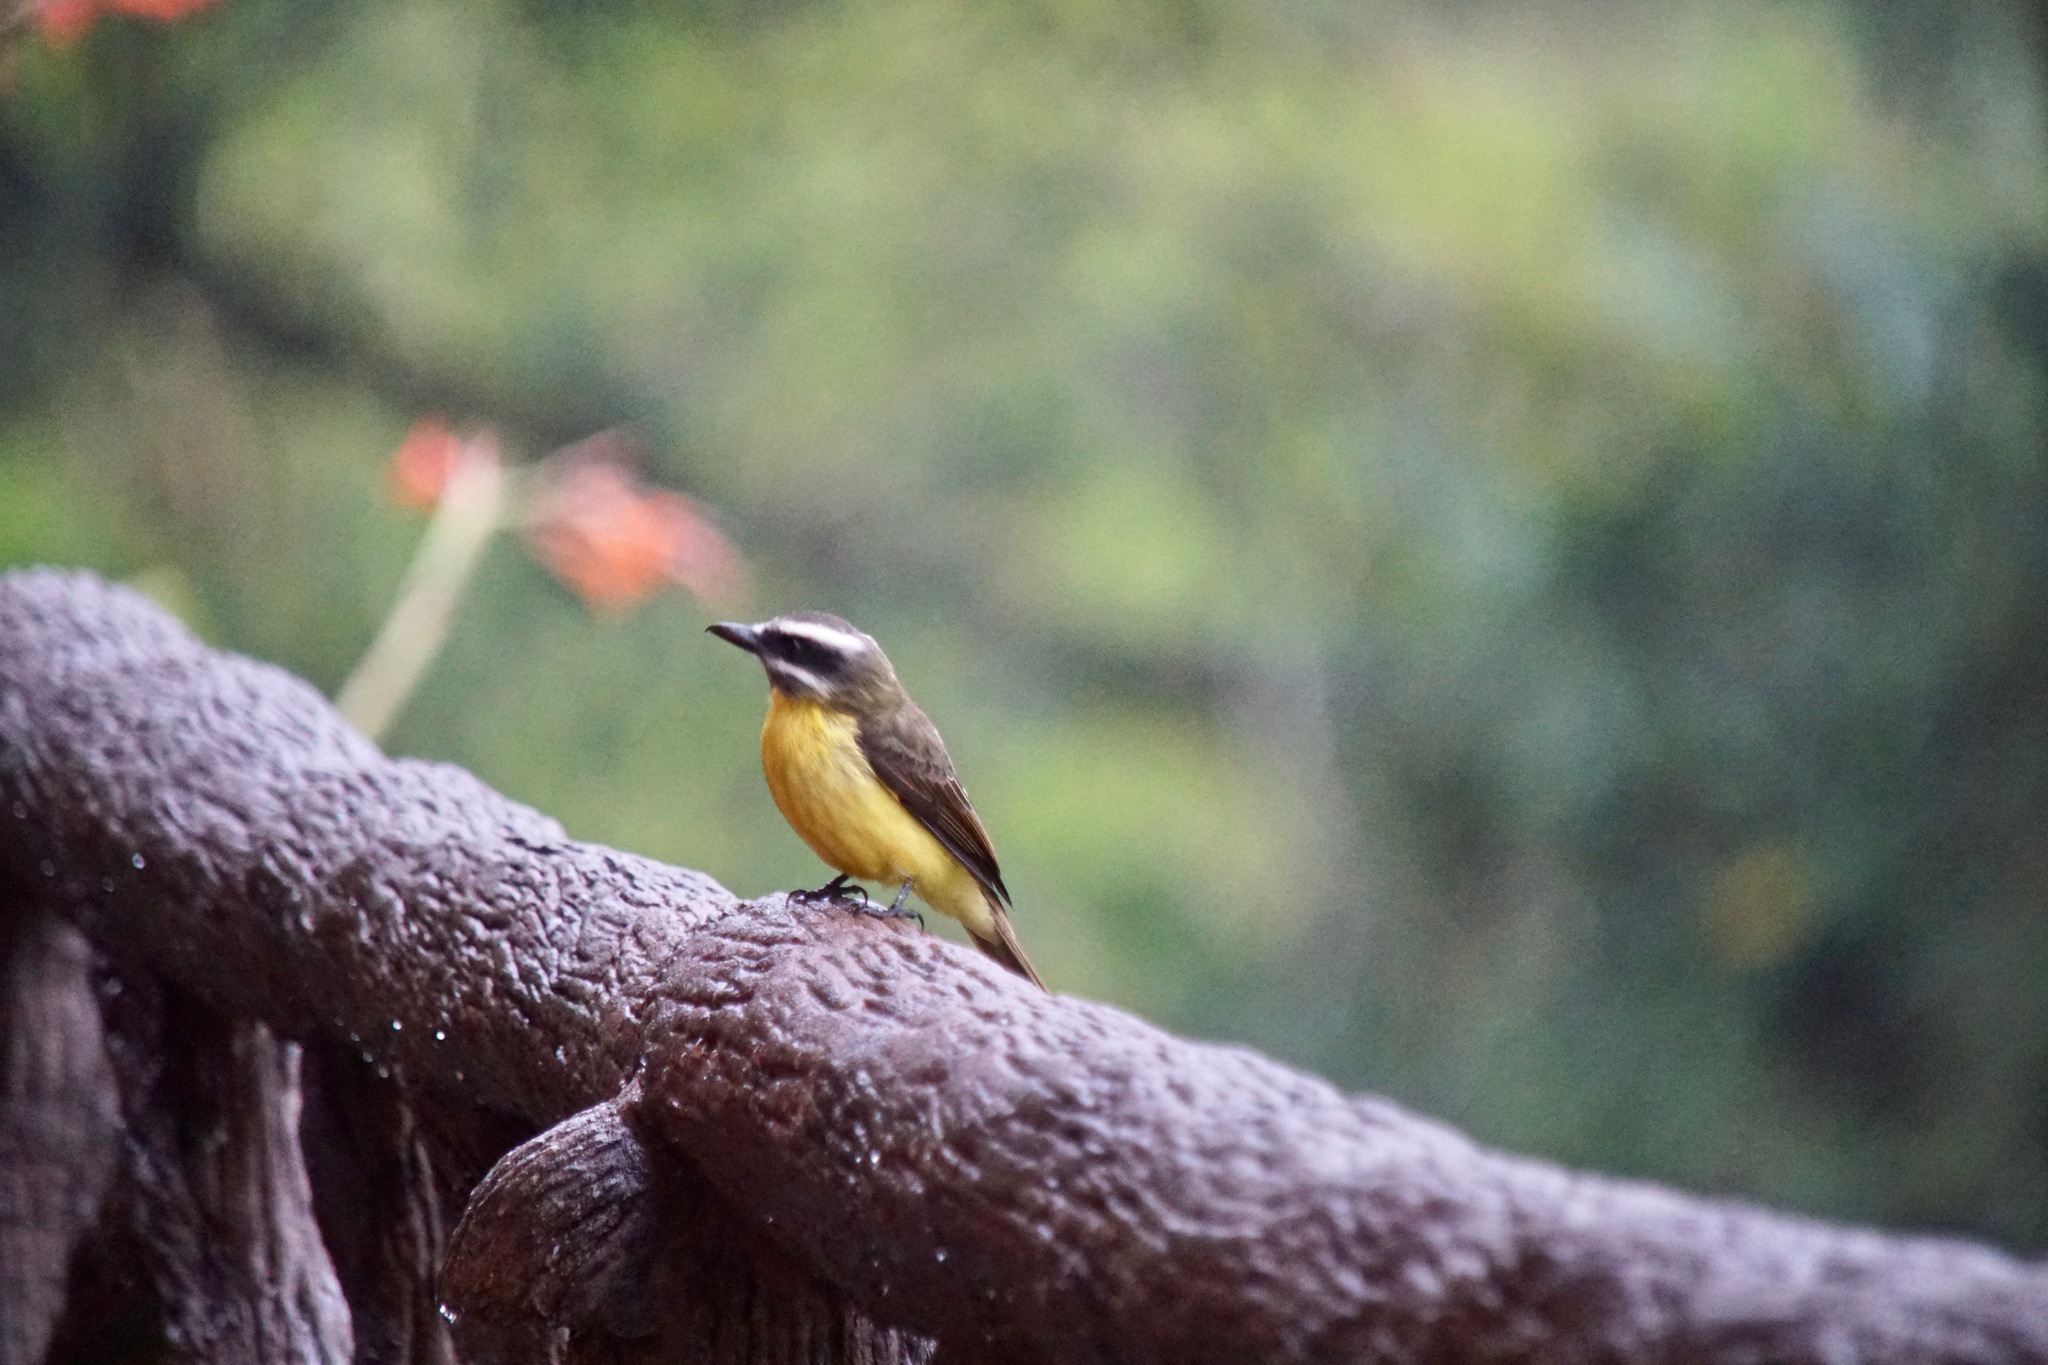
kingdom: Animalia
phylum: Chordata
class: Aves
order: Passeriformes
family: Tyrannidae
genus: Myiodynastes
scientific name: Myiodynastes hemichrysus
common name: Golden-bellied flycatcher
